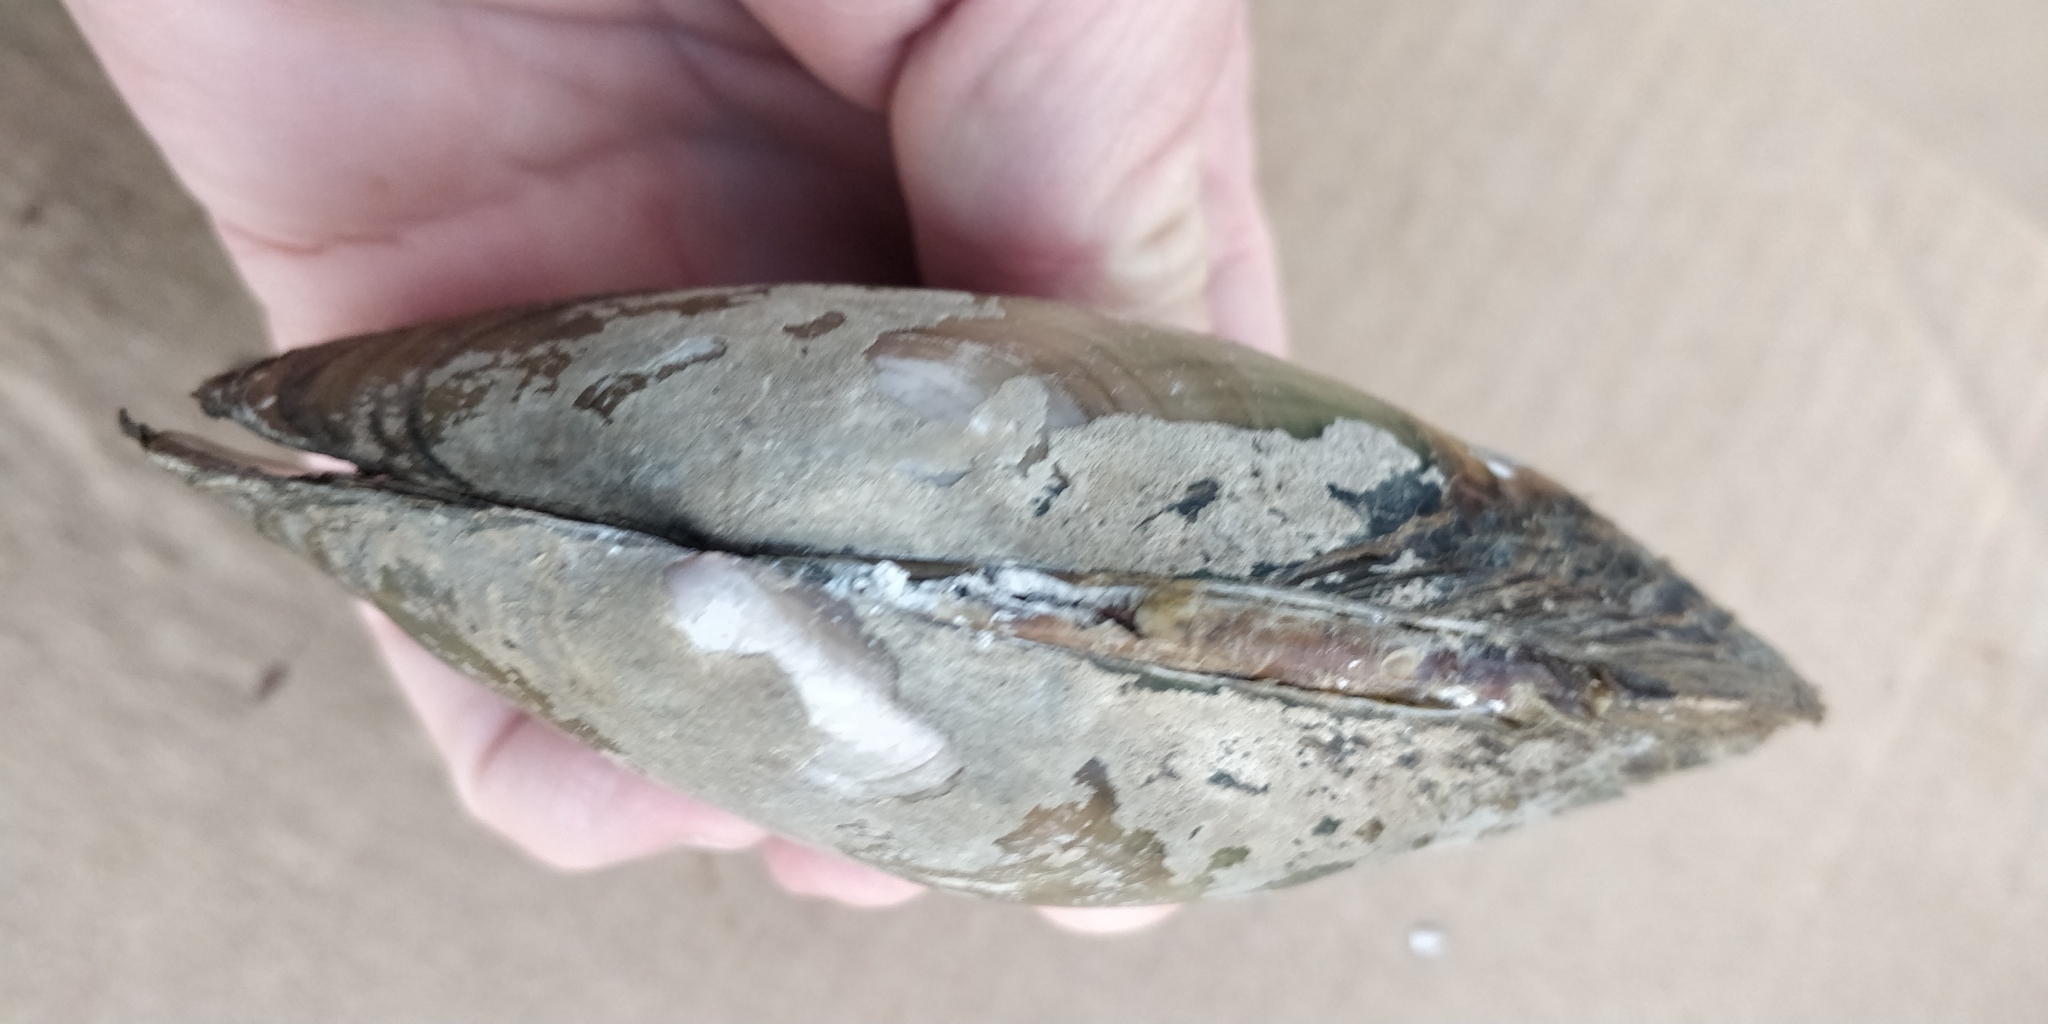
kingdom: Animalia
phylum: Mollusca
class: Bivalvia
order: Unionida
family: Unionidae
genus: Potamilus
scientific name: Potamilus fragilis
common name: Fragile papershell
